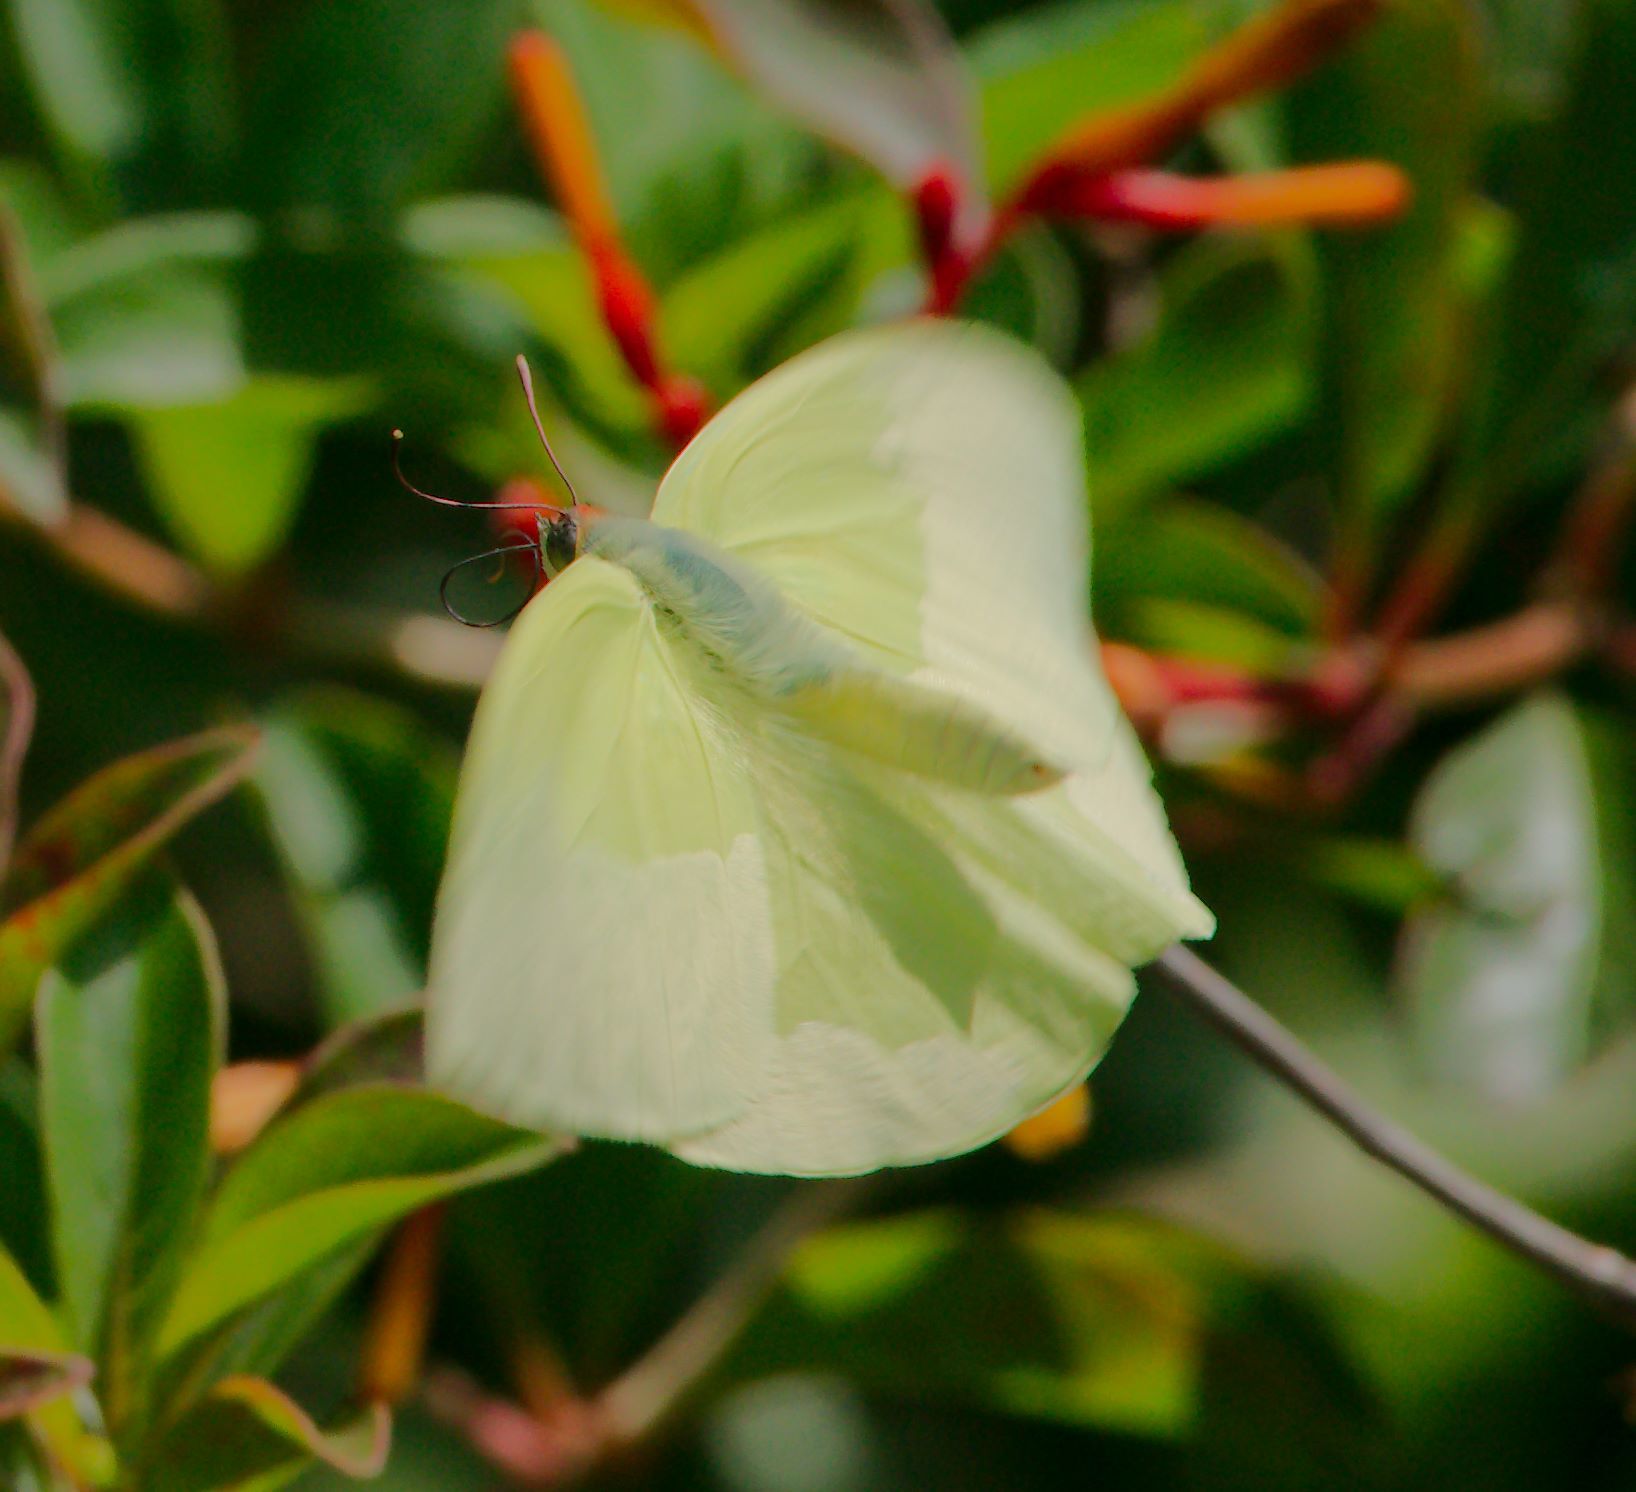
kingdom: Animalia
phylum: Arthropoda
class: Insecta
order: Lepidoptera
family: Pieridae
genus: Aphrissa
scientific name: Aphrissa statira
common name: Statira sulphur
